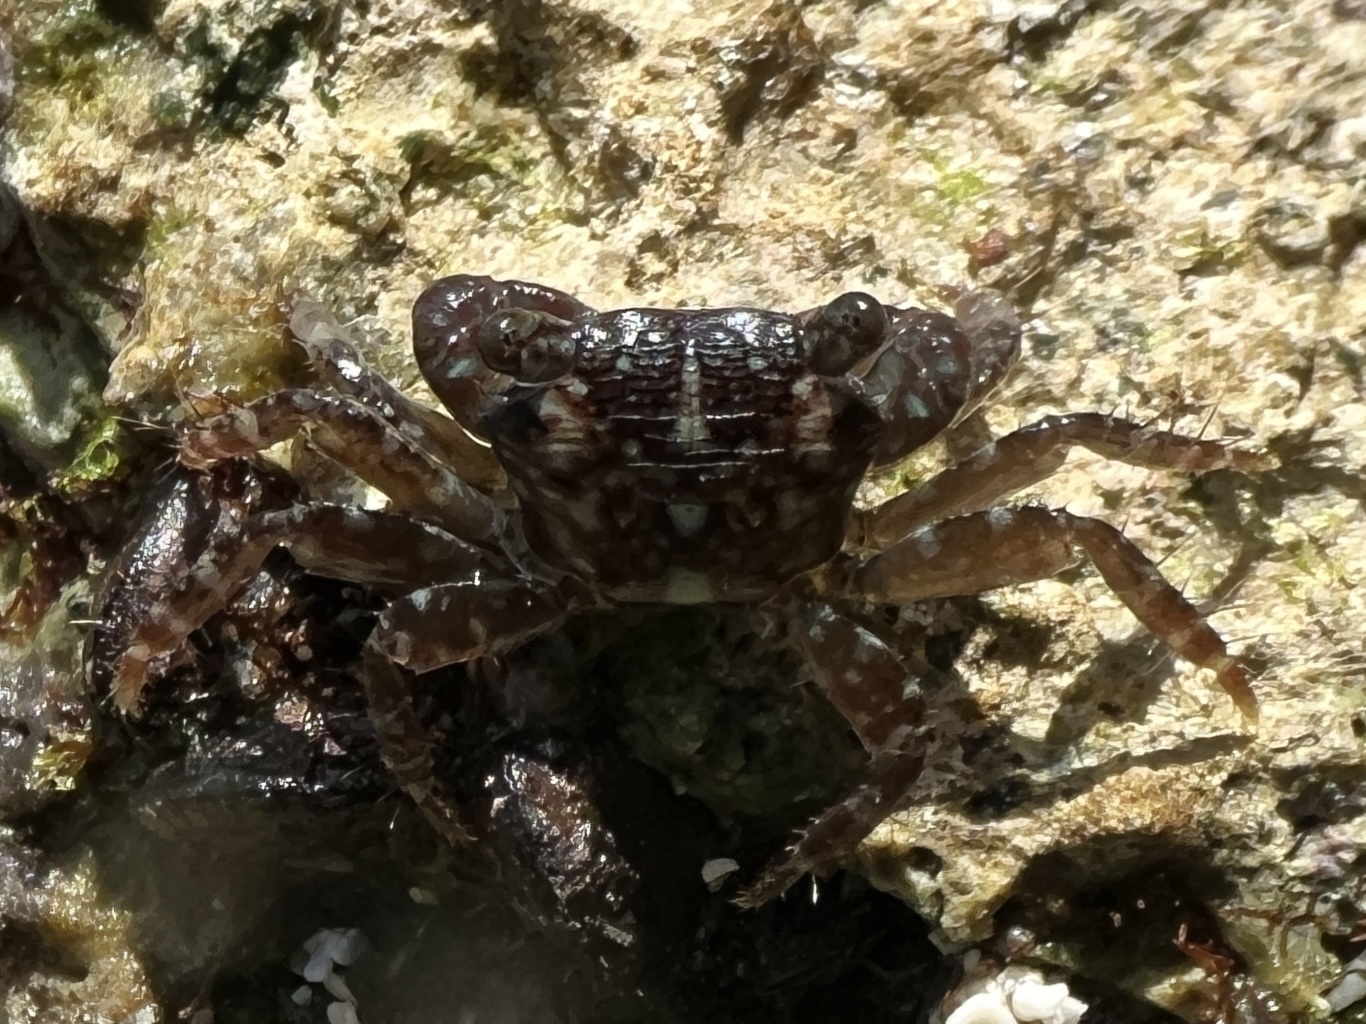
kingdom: Animalia
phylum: Arthropoda
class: Malacostraca
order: Decapoda
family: Grapsidae
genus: Pachygrapsus
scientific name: Pachygrapsus transversus
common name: Mottled shore crab
